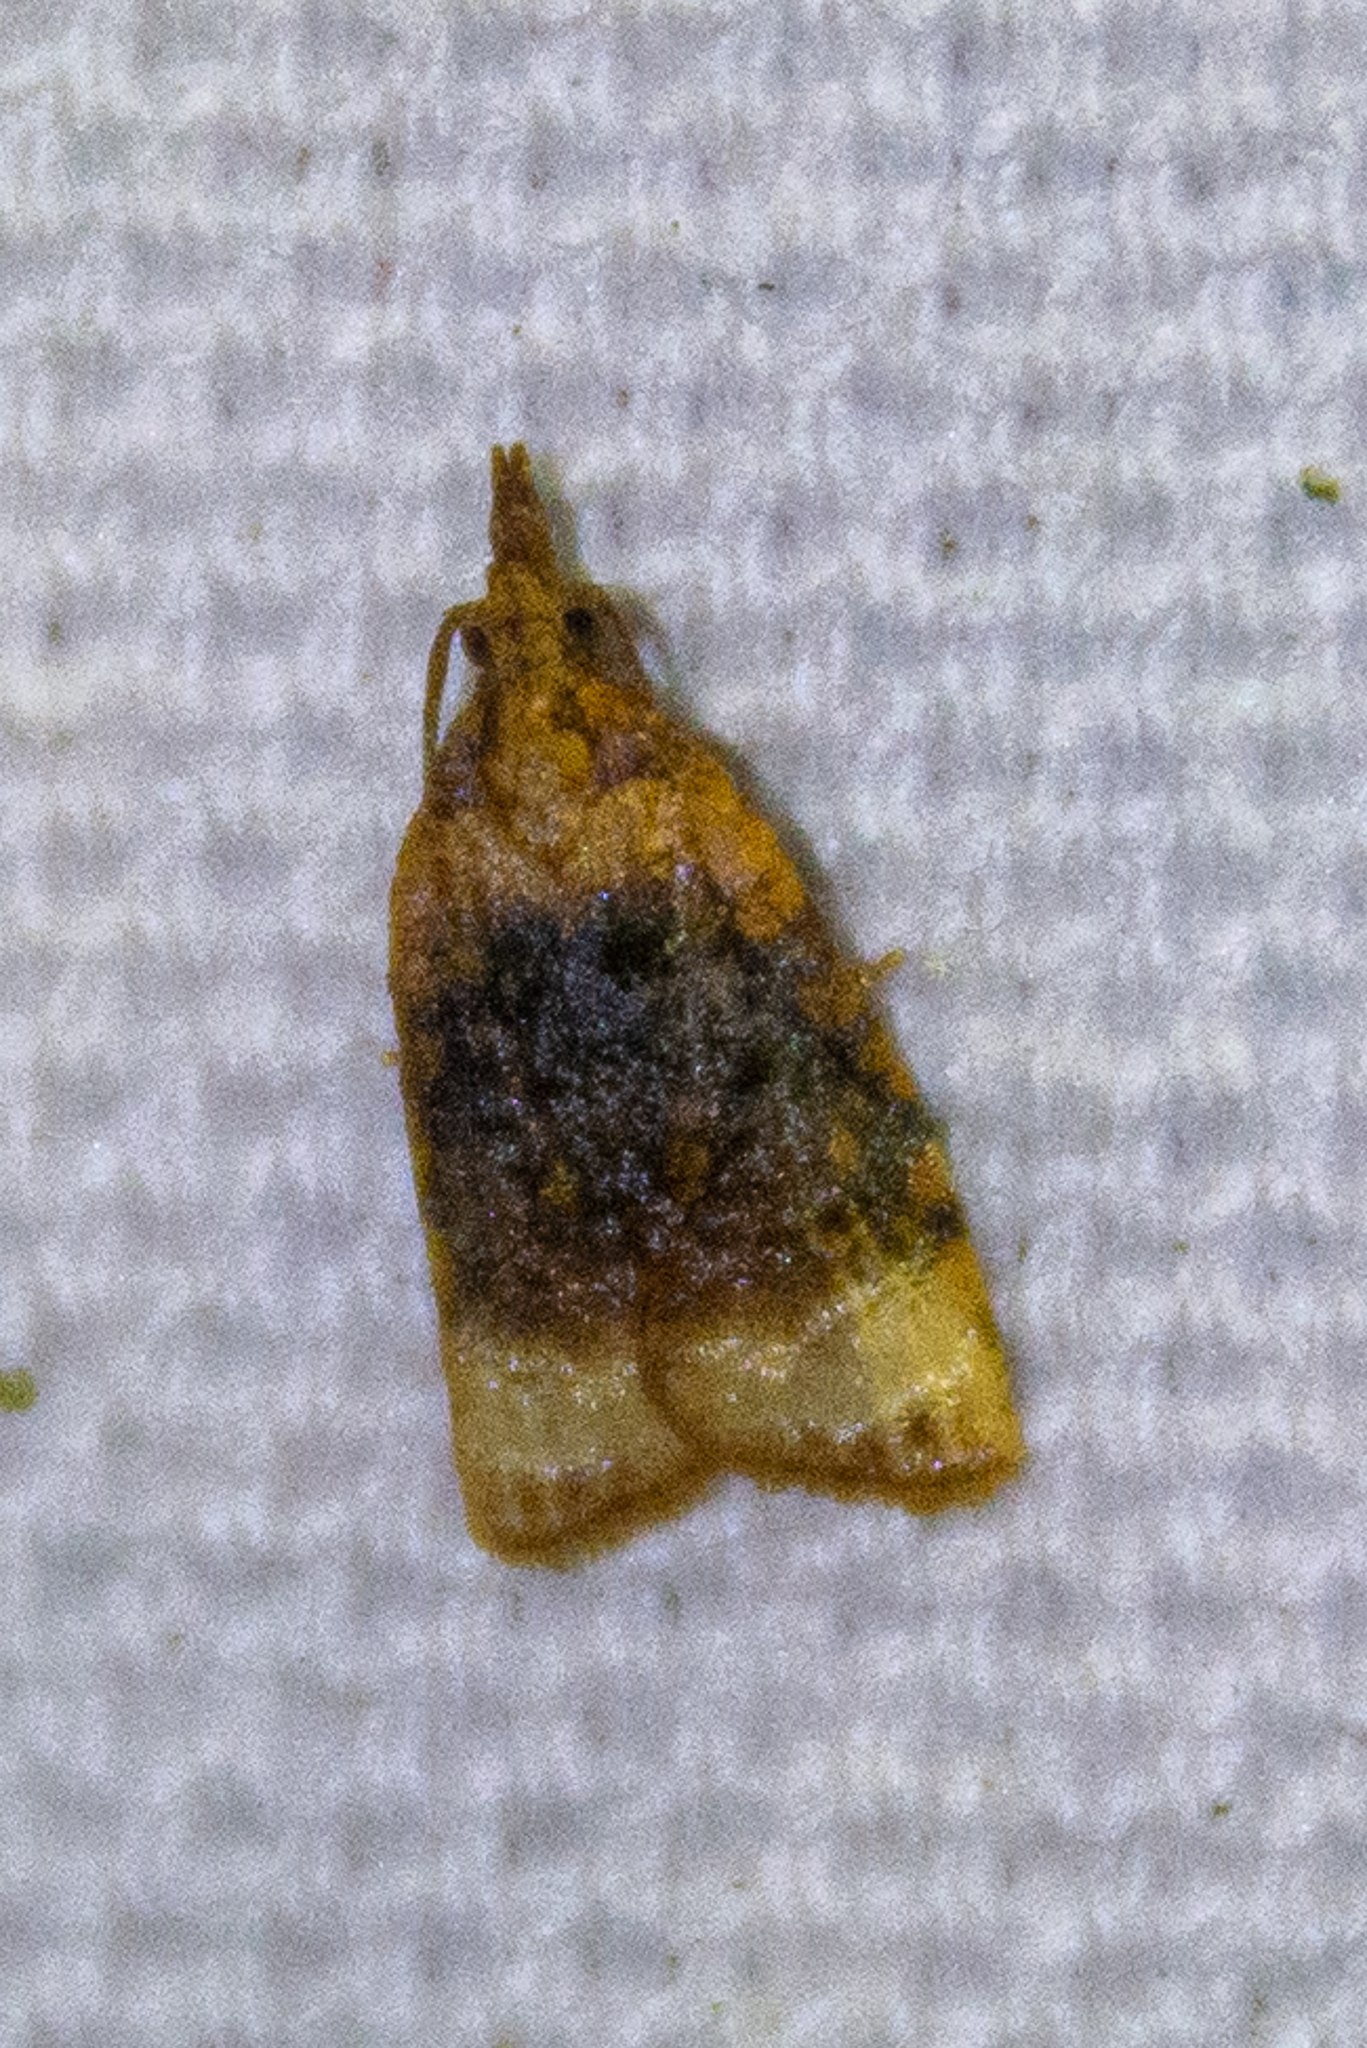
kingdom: Animalia
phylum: Arthropoda
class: Insecta
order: Lepidoptera
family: Tortricidae
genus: Platynota
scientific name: Platynota flavedana
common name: Black-shaded platynota moth
